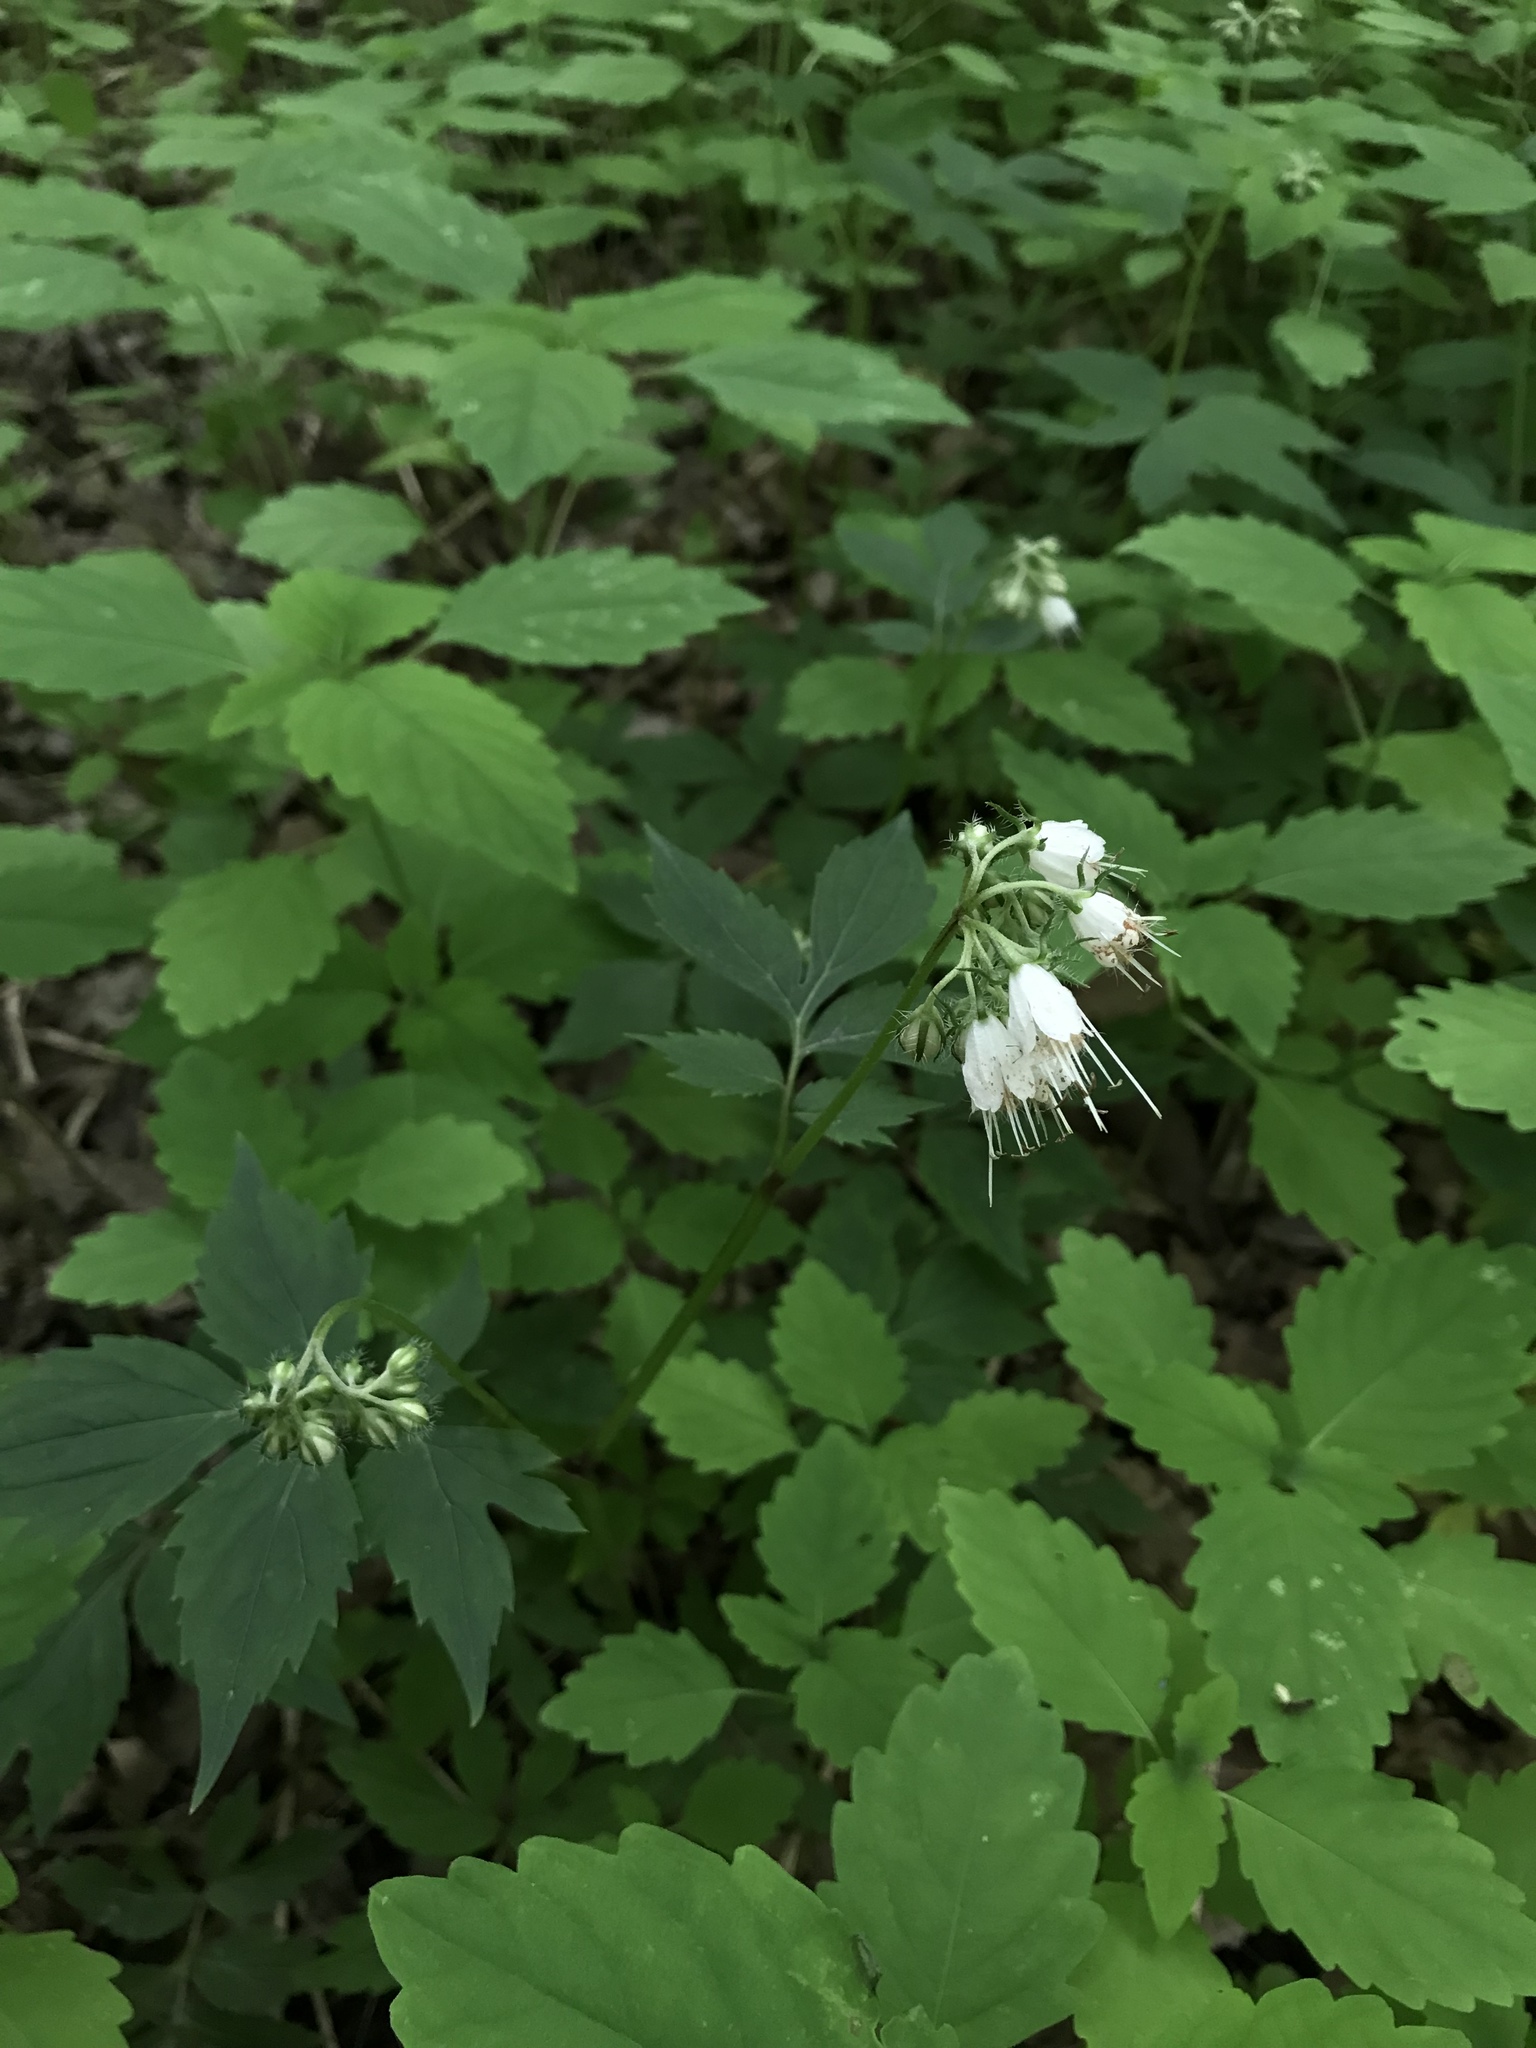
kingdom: Plantae
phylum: Tracheophyta
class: Magnoliopsida
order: Boraginales
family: Hydrophyllaceae
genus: Hydrophyllum
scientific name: Hydrophyllum virginianum
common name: Virginia waterleaf
